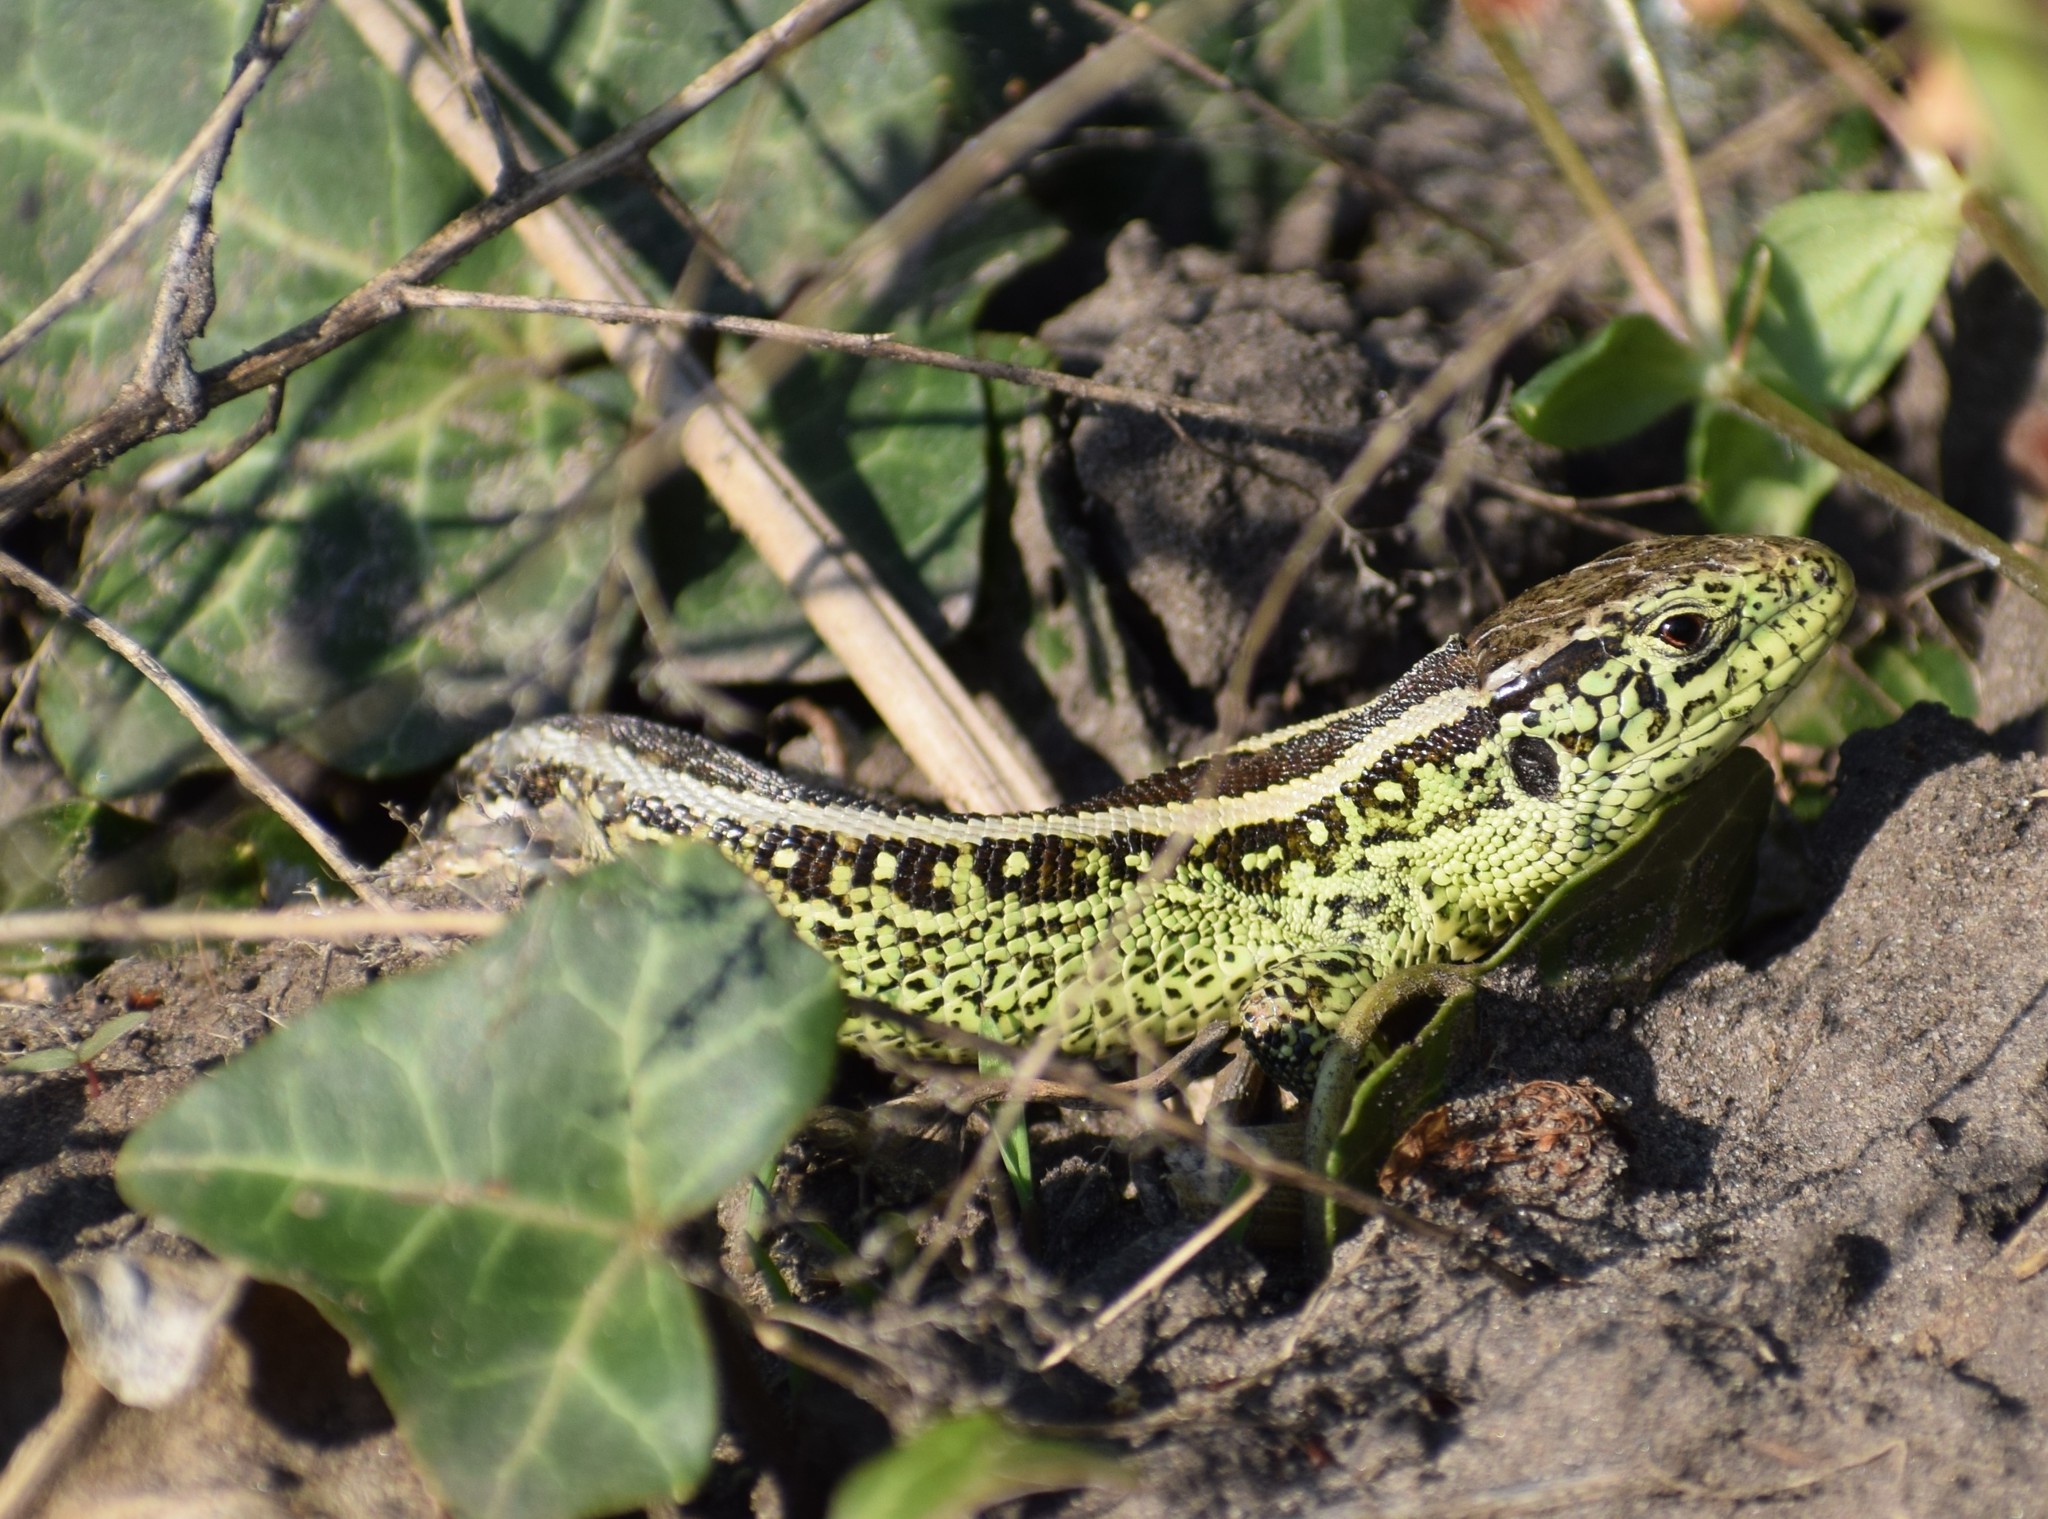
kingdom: Animalia
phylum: Chordata
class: Squamata
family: Lacertidae
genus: Lacerta
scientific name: Lacerta agilis
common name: Sand lizard
